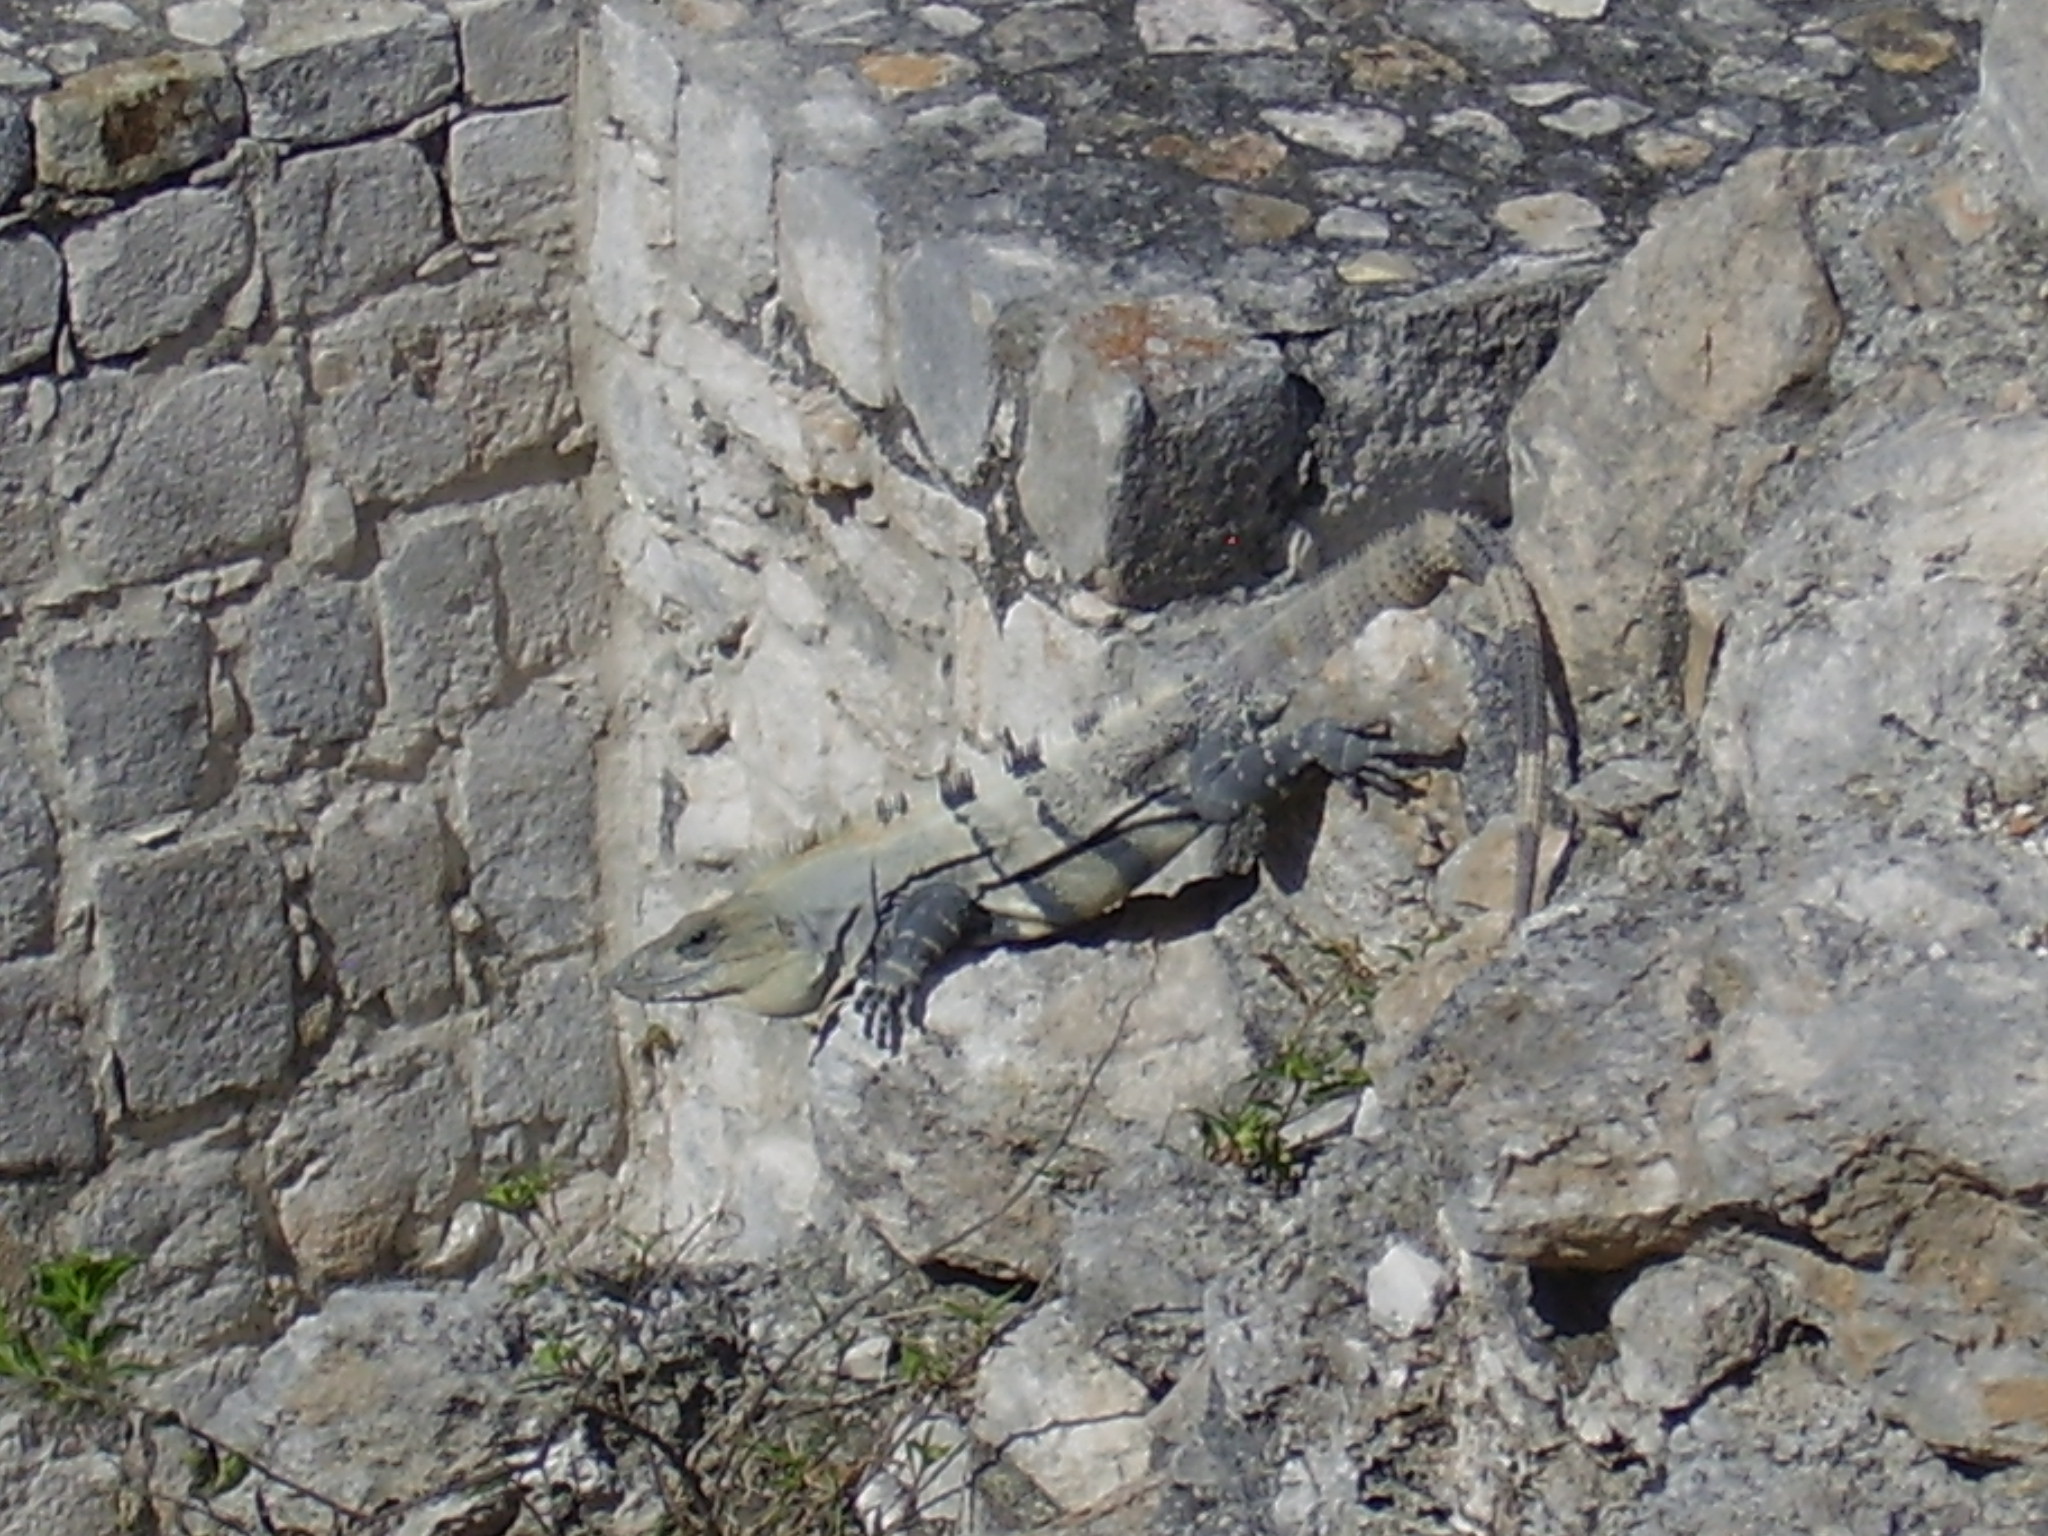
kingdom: Animalia
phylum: Chordata
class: Squamata
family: Iguanidae
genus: Ctenosaura
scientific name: Ctenosaura similis
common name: Black spiny-tailed iguana
